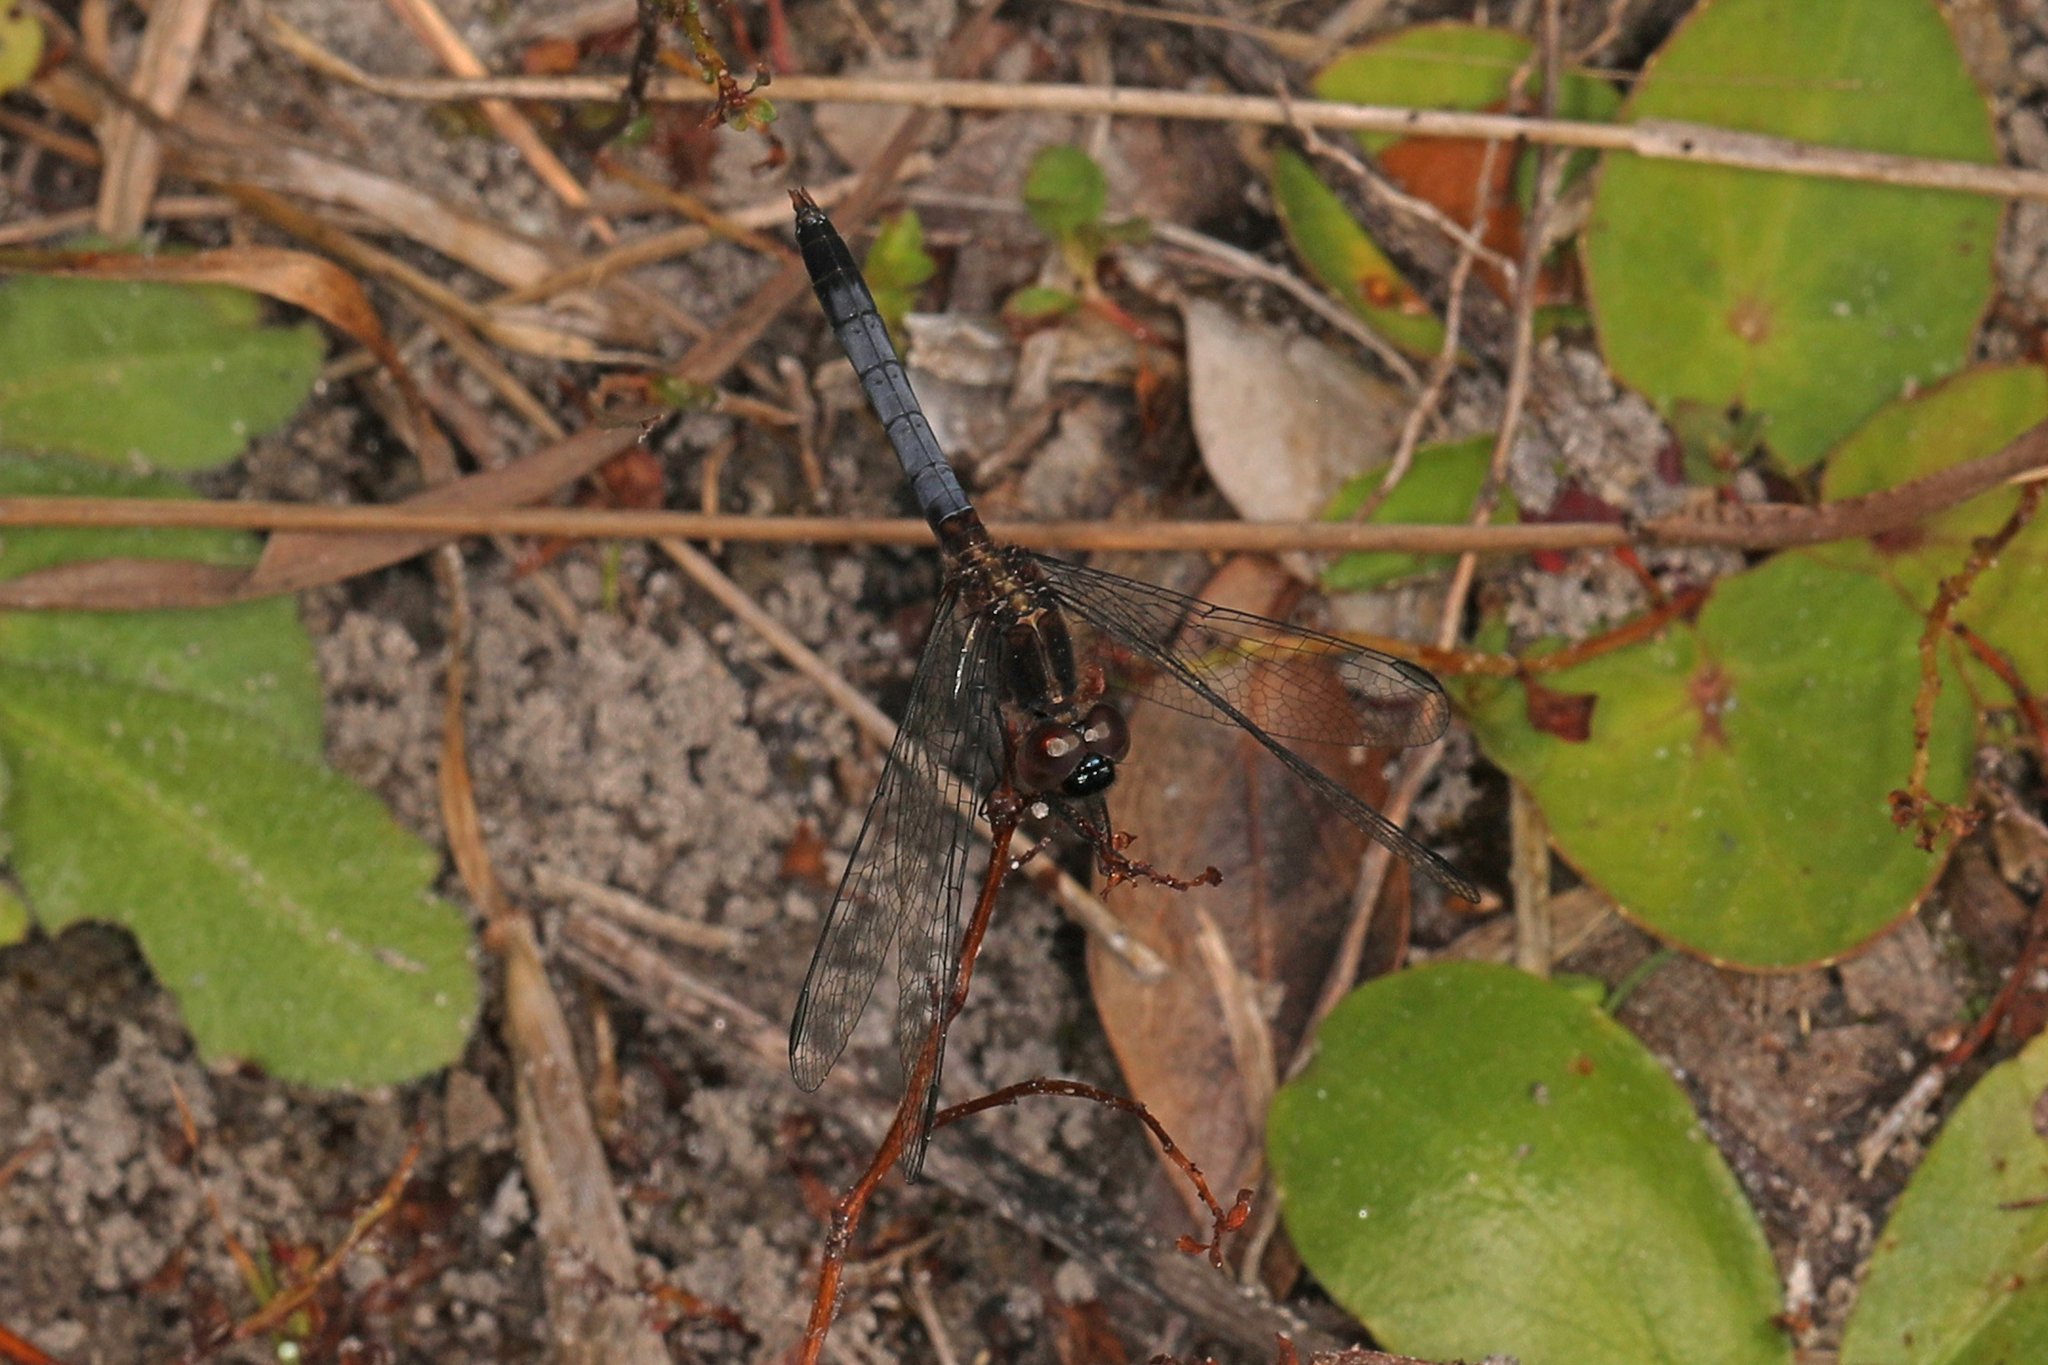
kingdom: Animalia
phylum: Arthropoda
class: Insecta
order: Odonata
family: Libellulidae
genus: Erythrodiplax
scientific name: Erythrodiplax minuscula
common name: Little blue dragonlet
